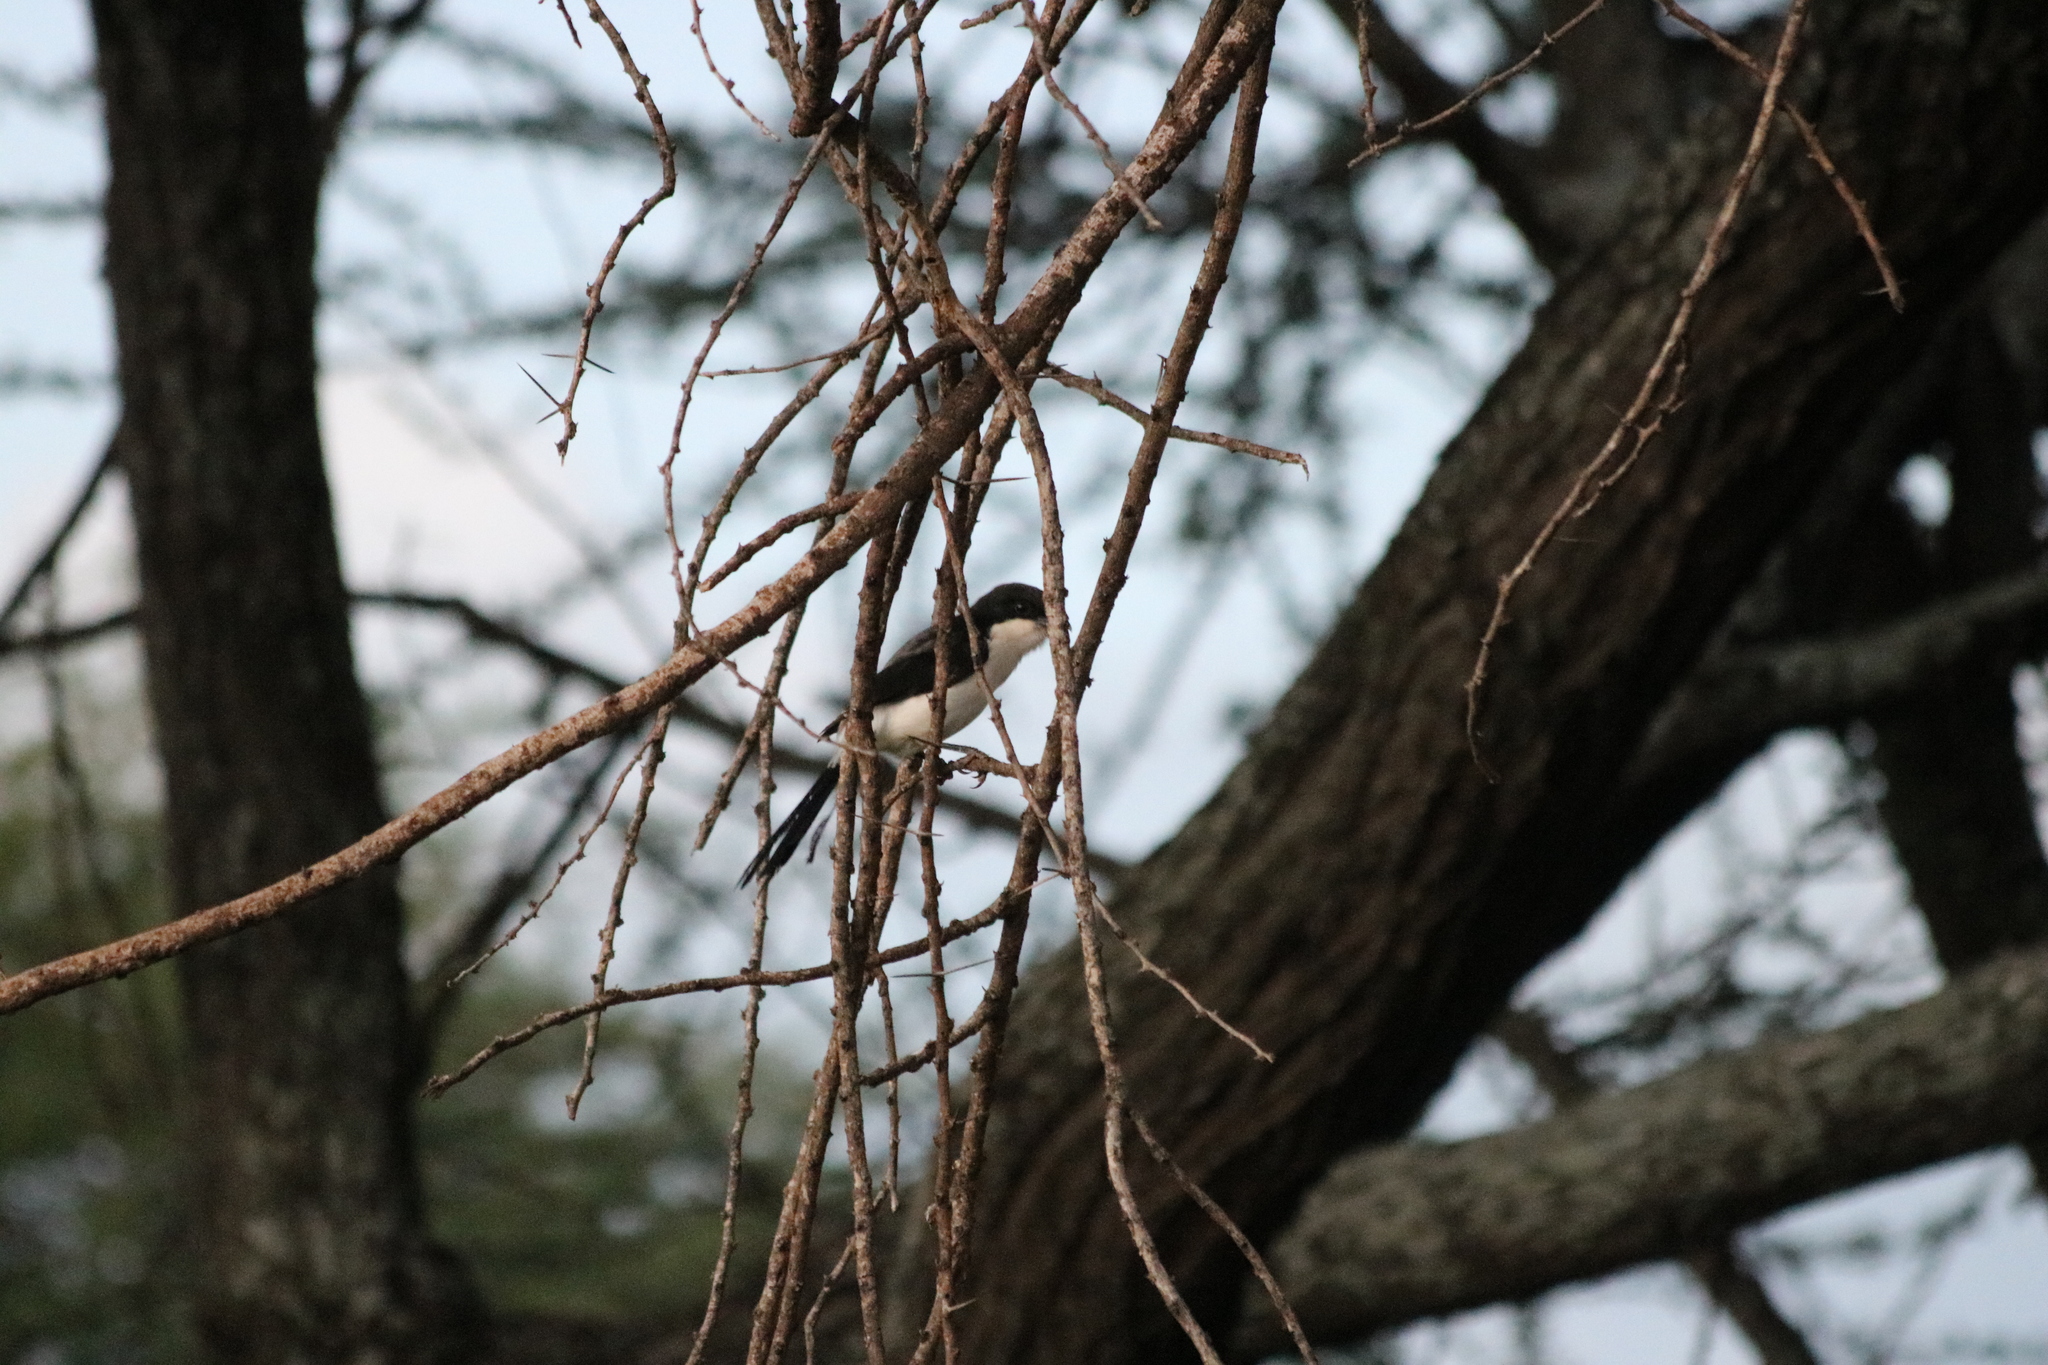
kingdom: Animalia
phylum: Chordata
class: Aves
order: Passeriformes
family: Laniidae
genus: Lanius
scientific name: Lanius cabanisi
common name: Long-tailed fiscal
